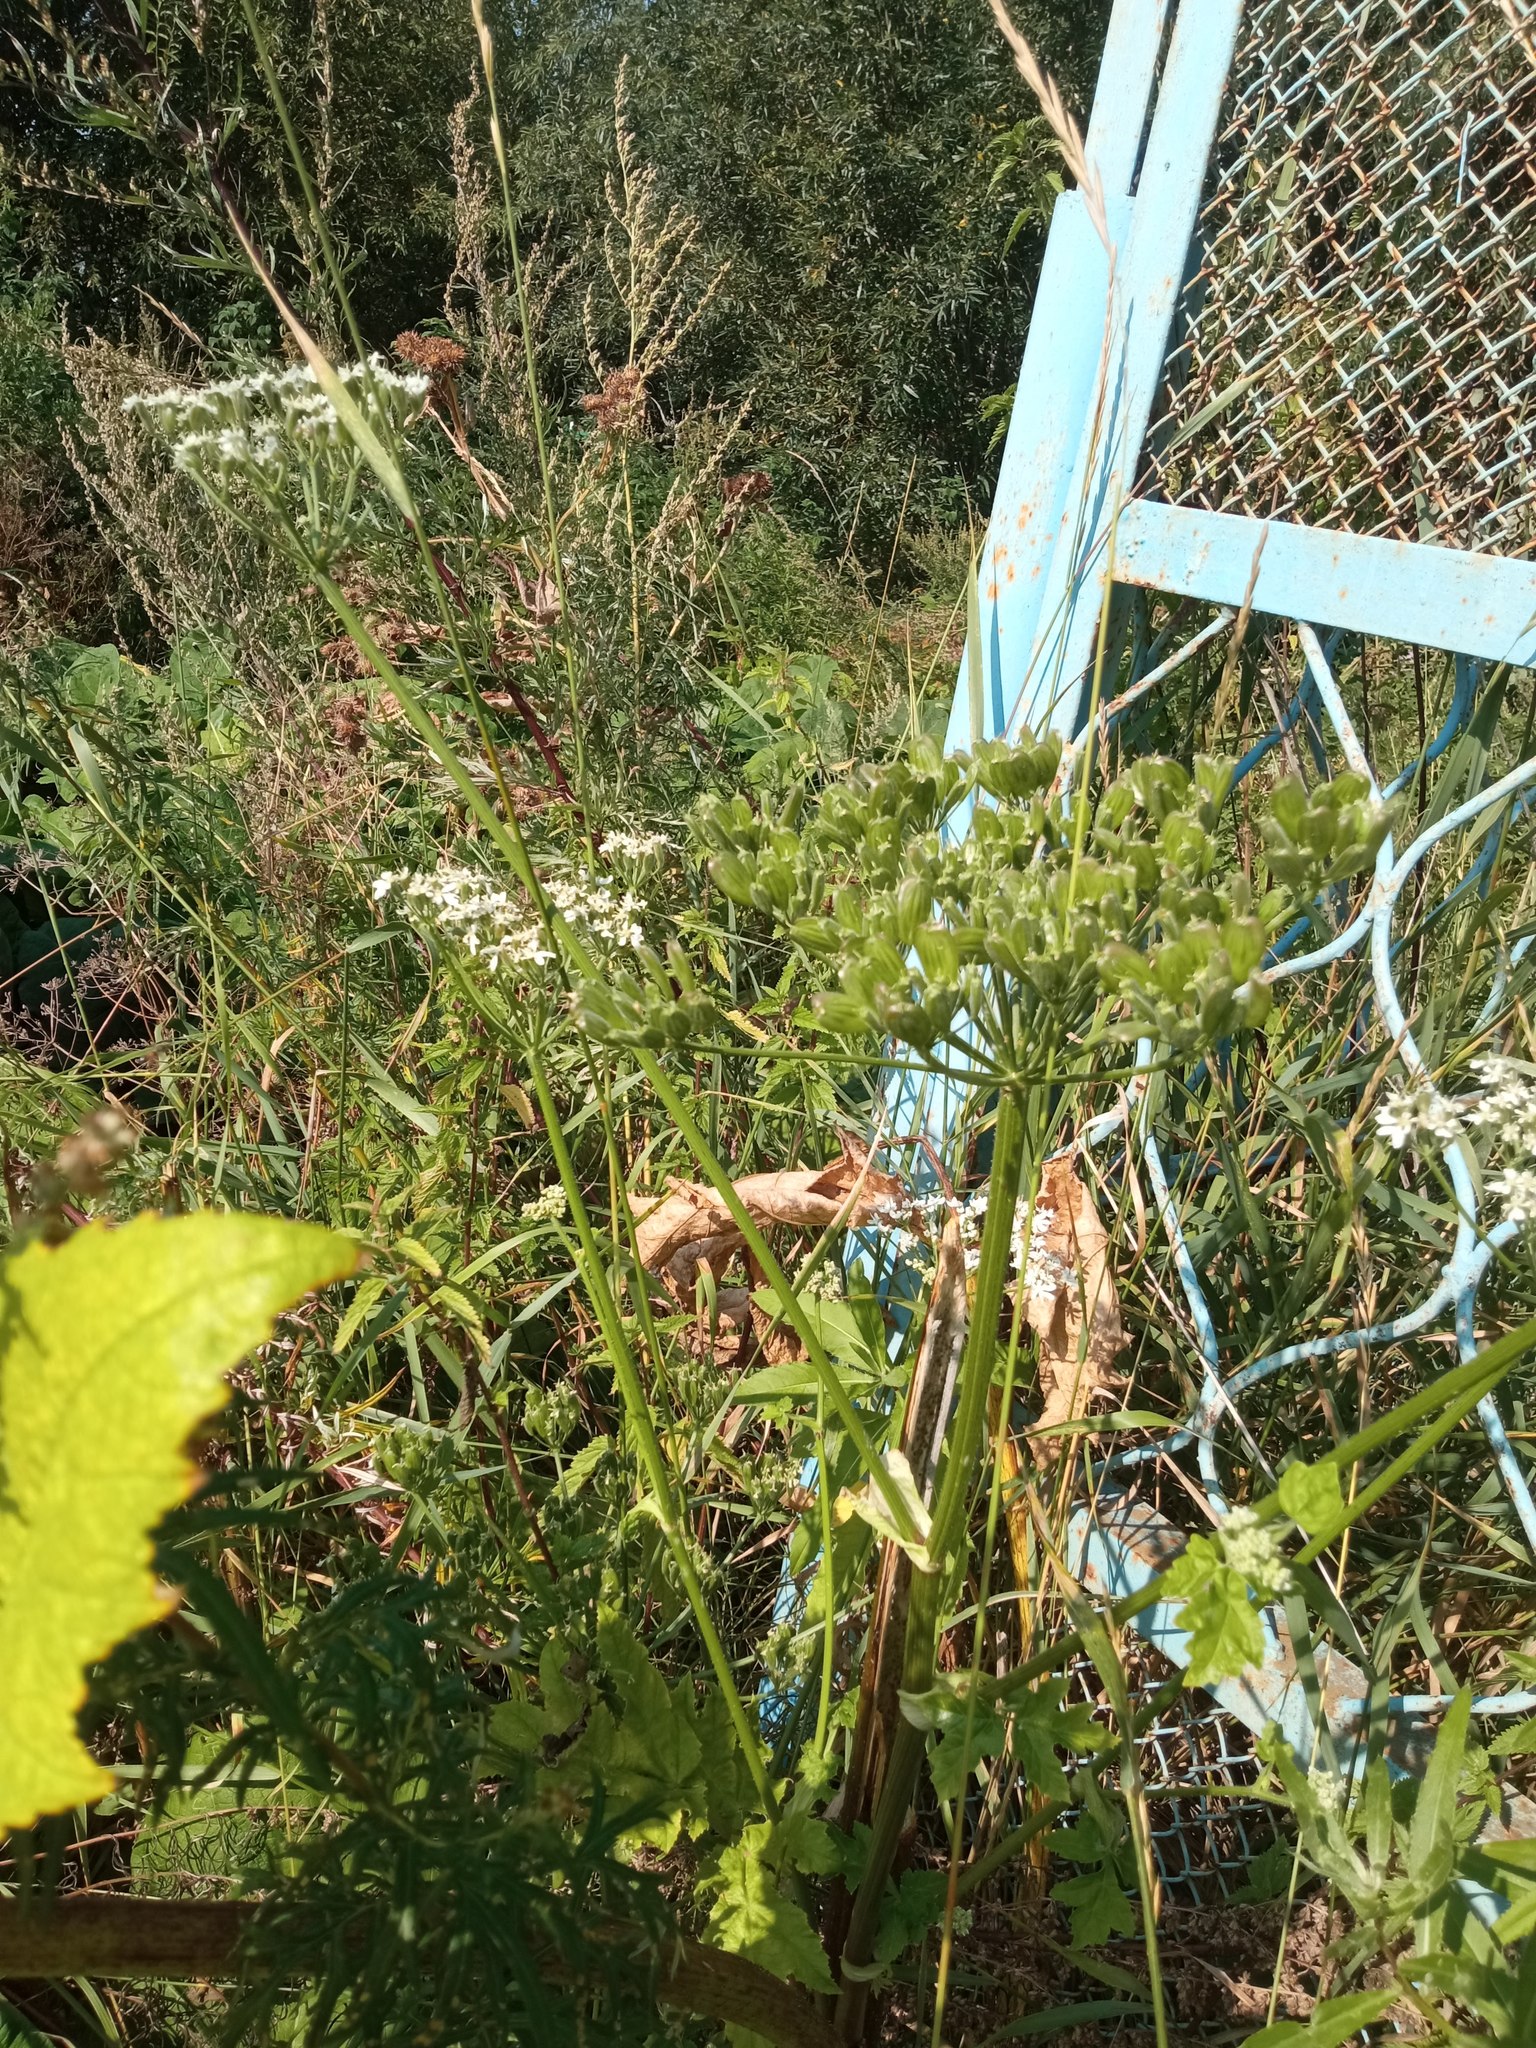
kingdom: Plantae
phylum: Tracheophyta
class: Magnoliopsida
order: Apiales
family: Apiaceae
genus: Heracleum
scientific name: Heracleum dissectum
